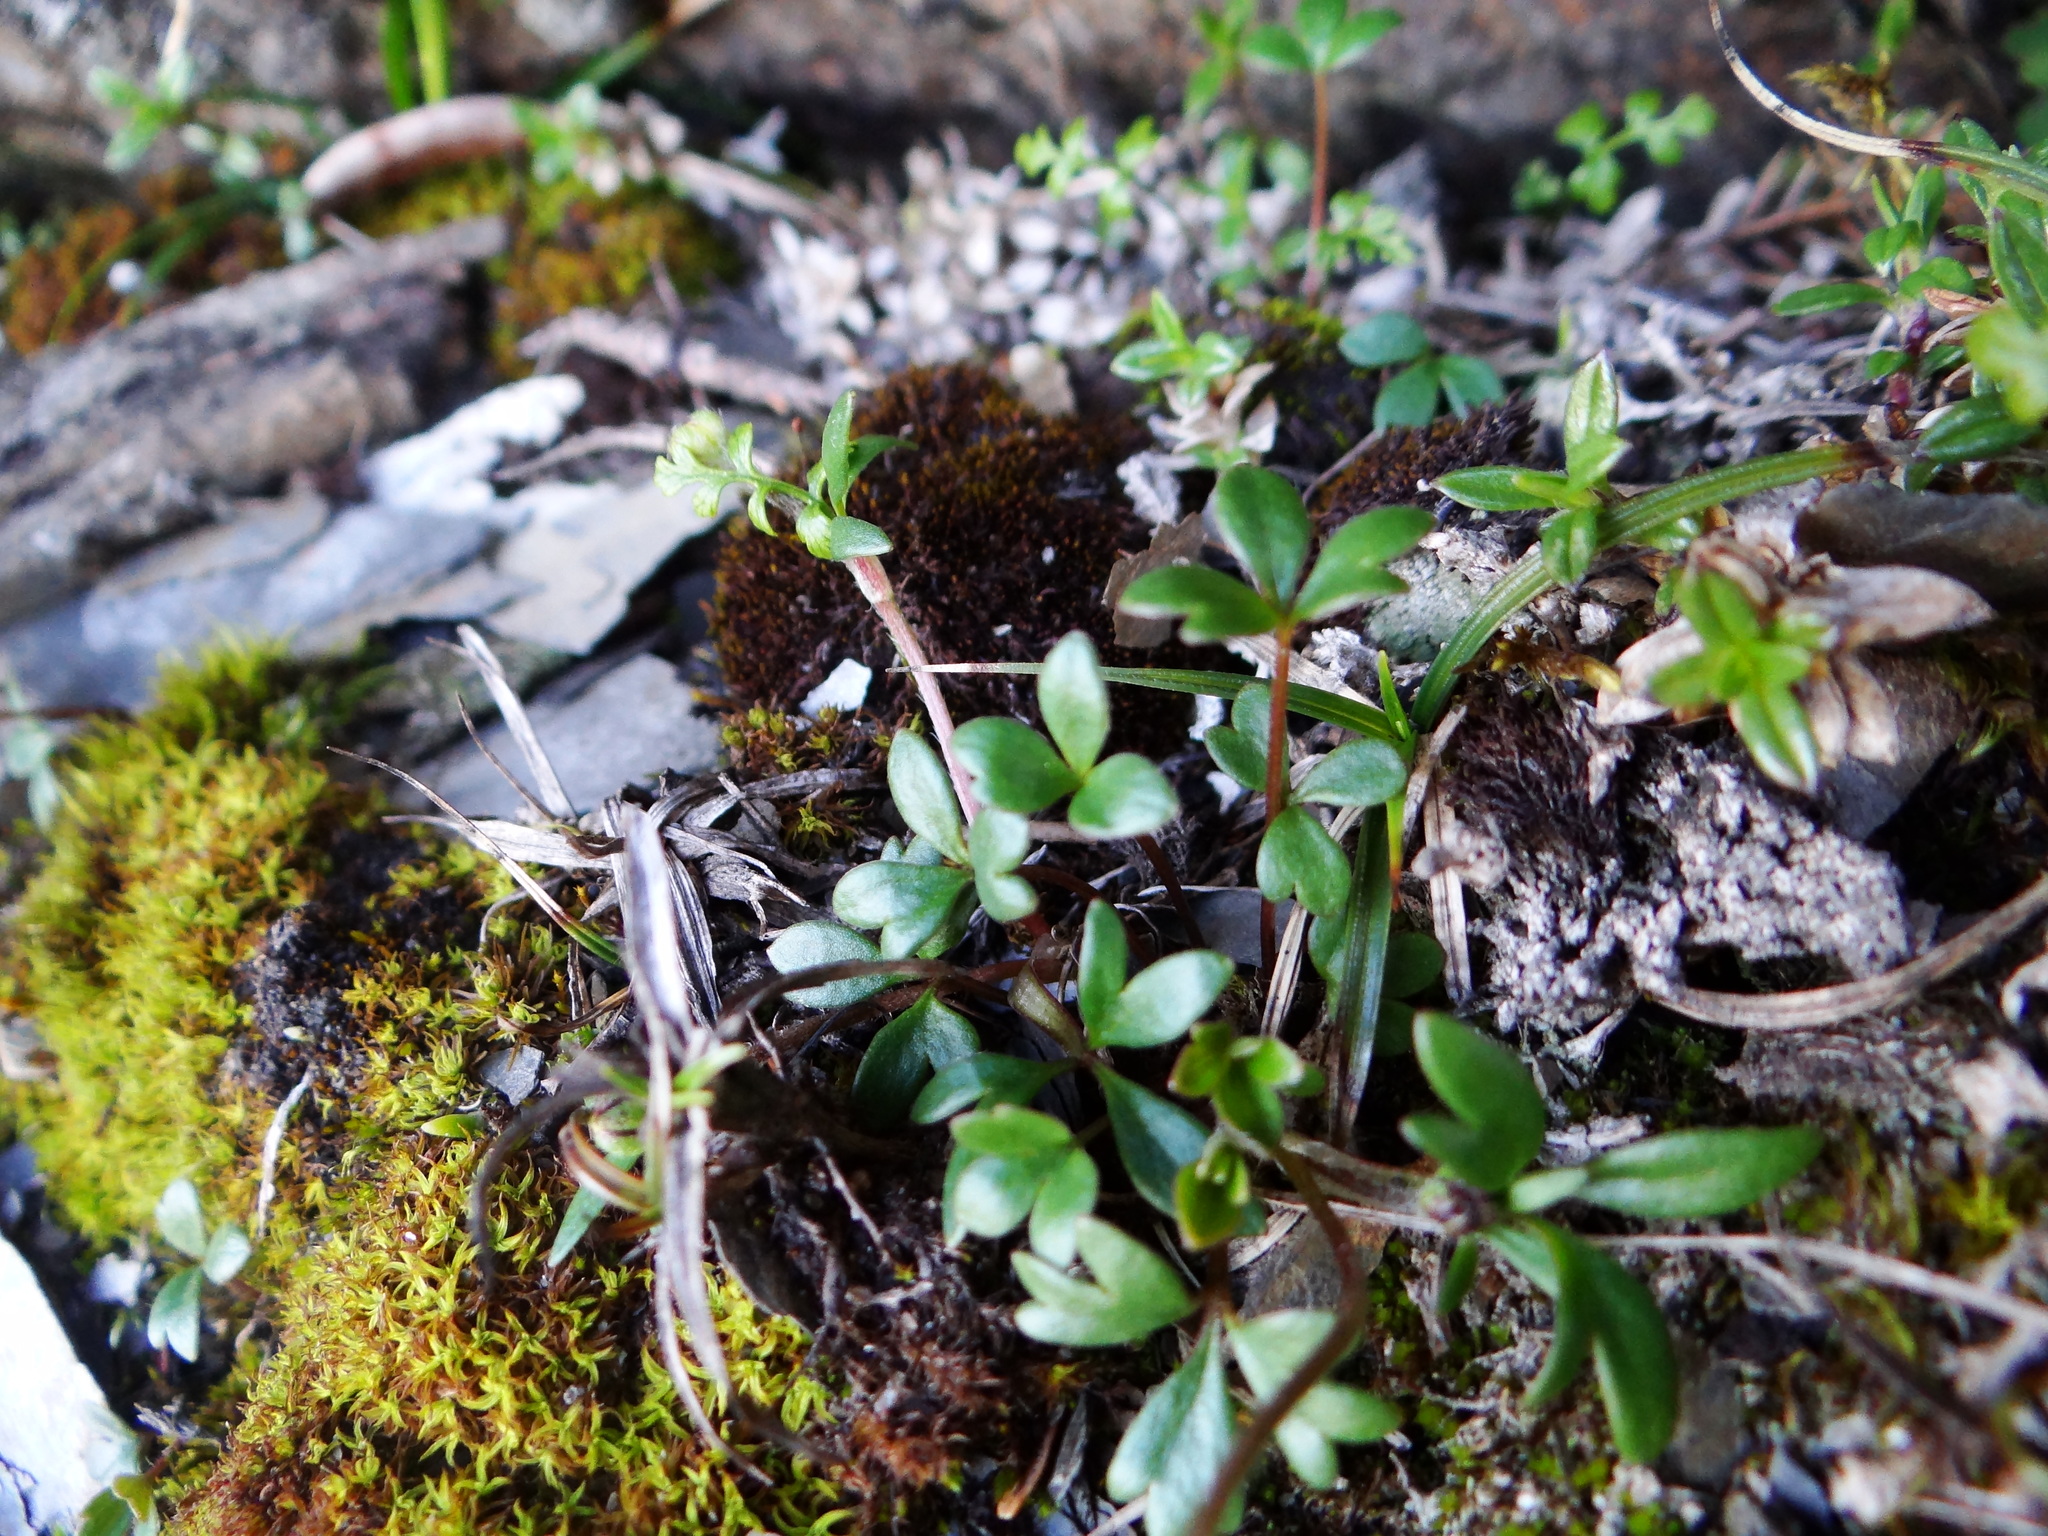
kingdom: Plantae
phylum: Tracheophyta
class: Magnoliopsida
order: Ranunculales
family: Ranunculaceae
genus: Ranunculus
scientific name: Ranunculus nankotaizanus
